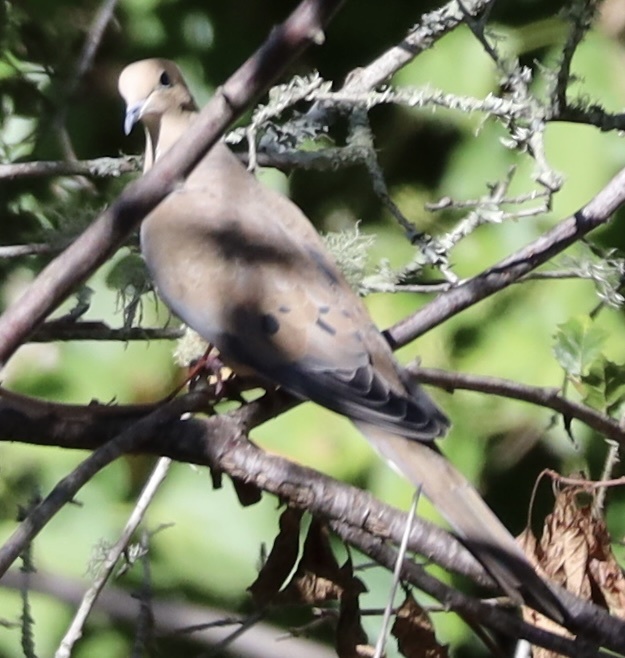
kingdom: Animalia
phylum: Chordata
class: Aves
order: Columbiformes
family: Columbidae
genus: Zenaida
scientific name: Zenaida macroura
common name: Mourning dove
